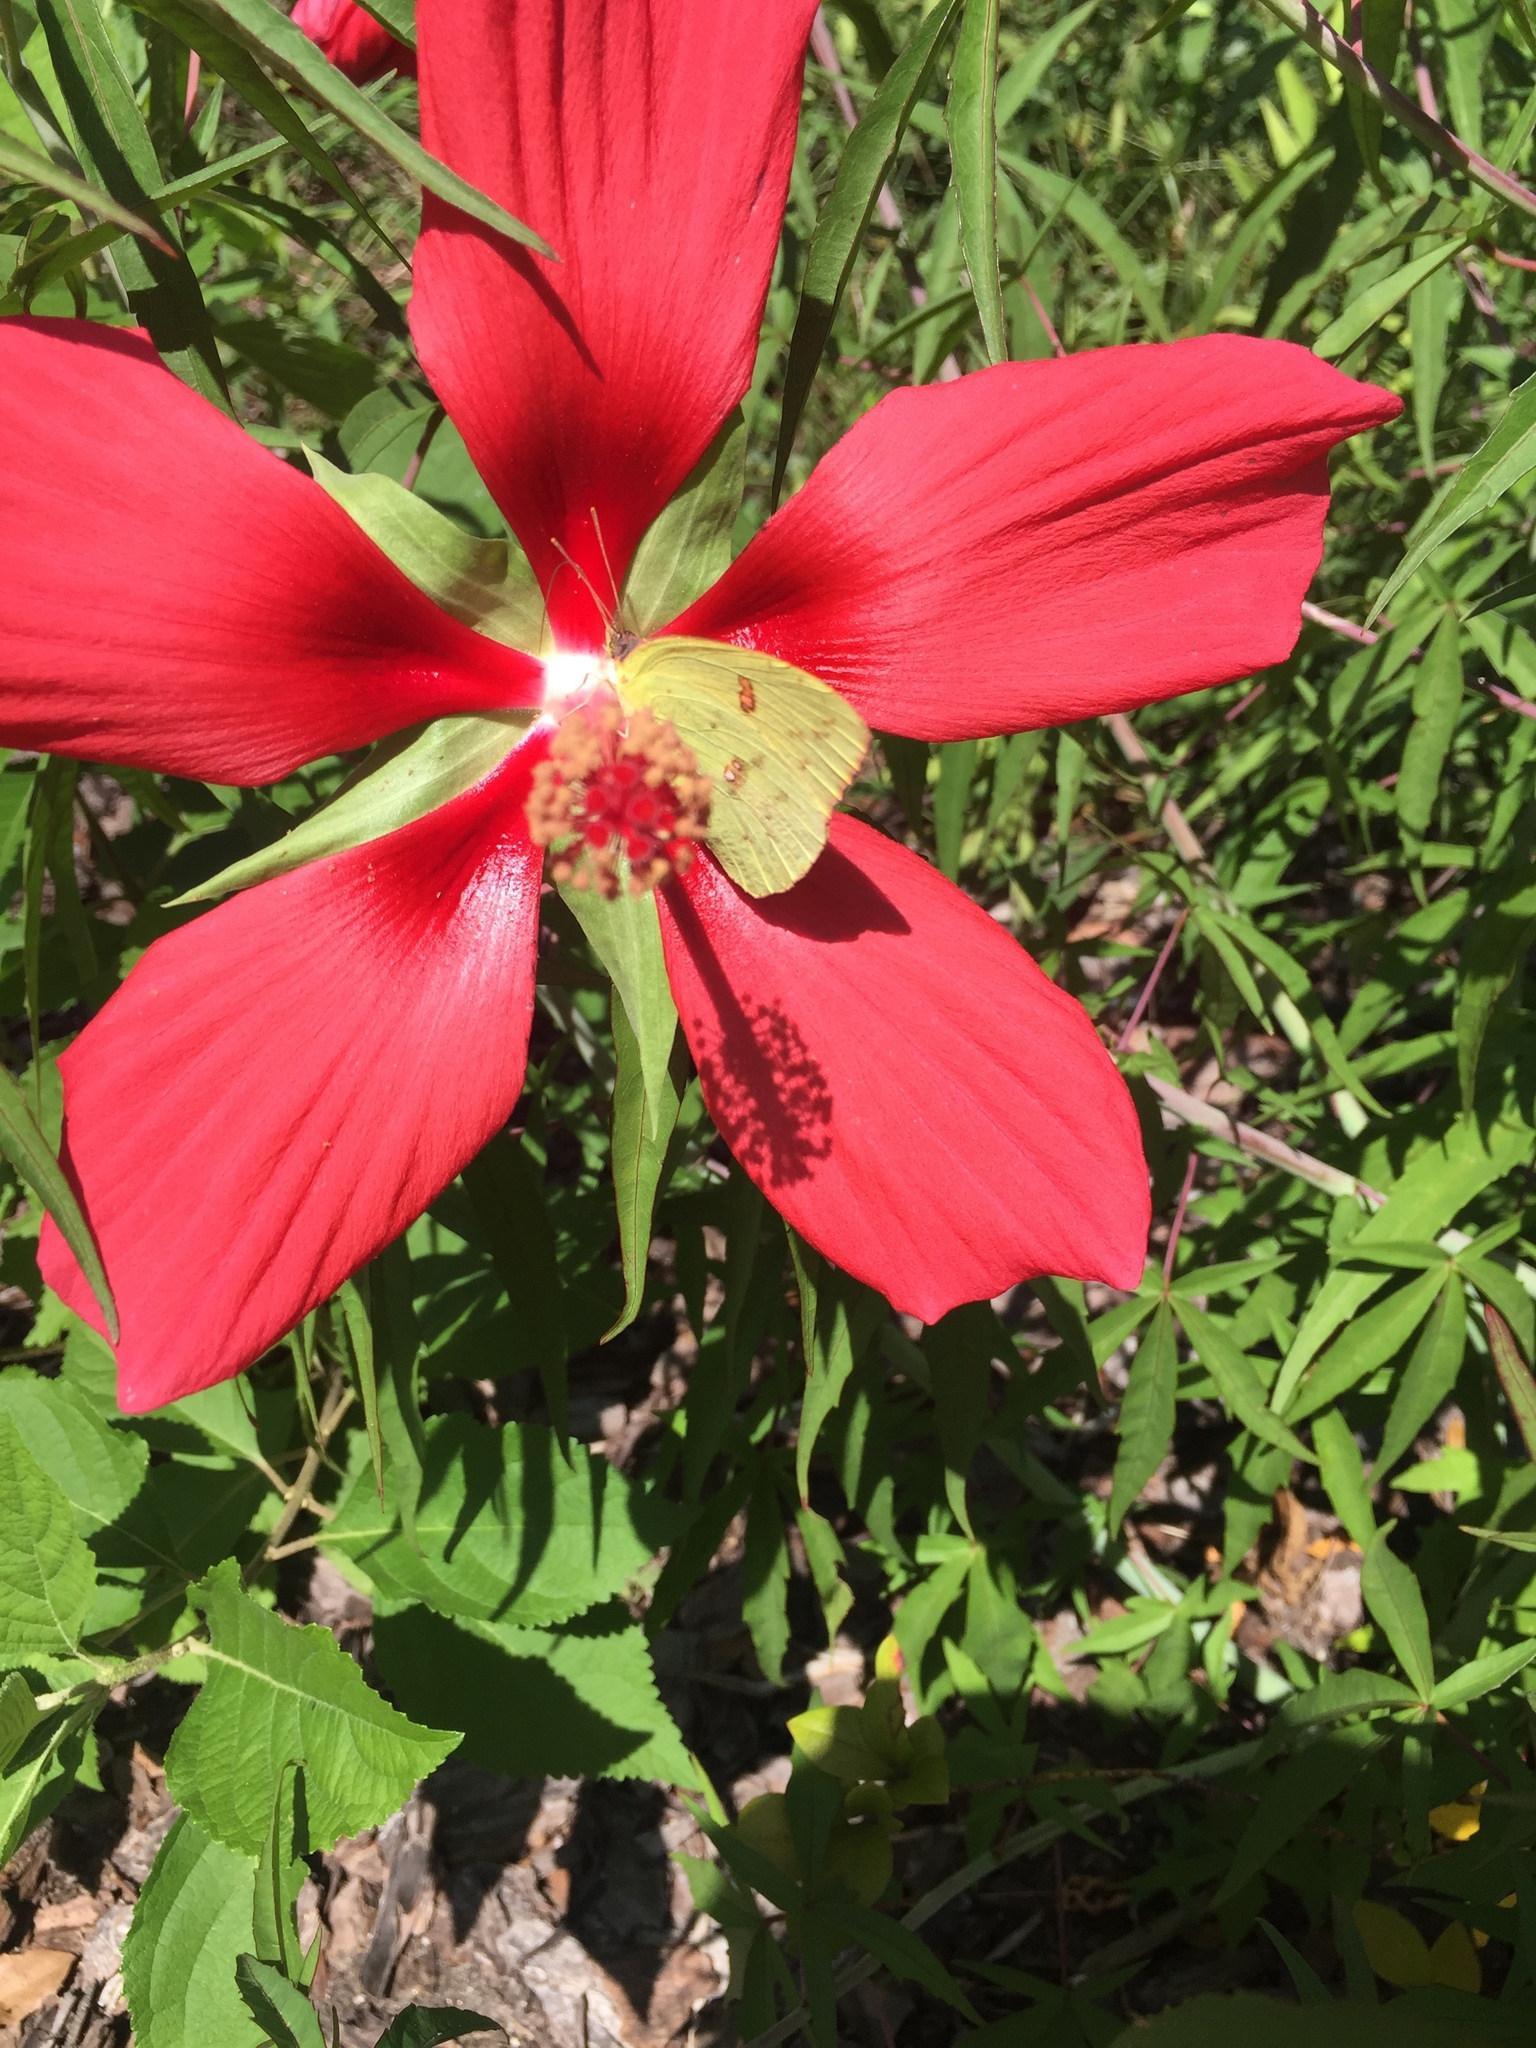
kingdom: Animalia
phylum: Arthropoda
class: Insecta
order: Lepidoptera
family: Pieridae
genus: Phoebis
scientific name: Phoebis sennae
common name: Cloudless sulphur
